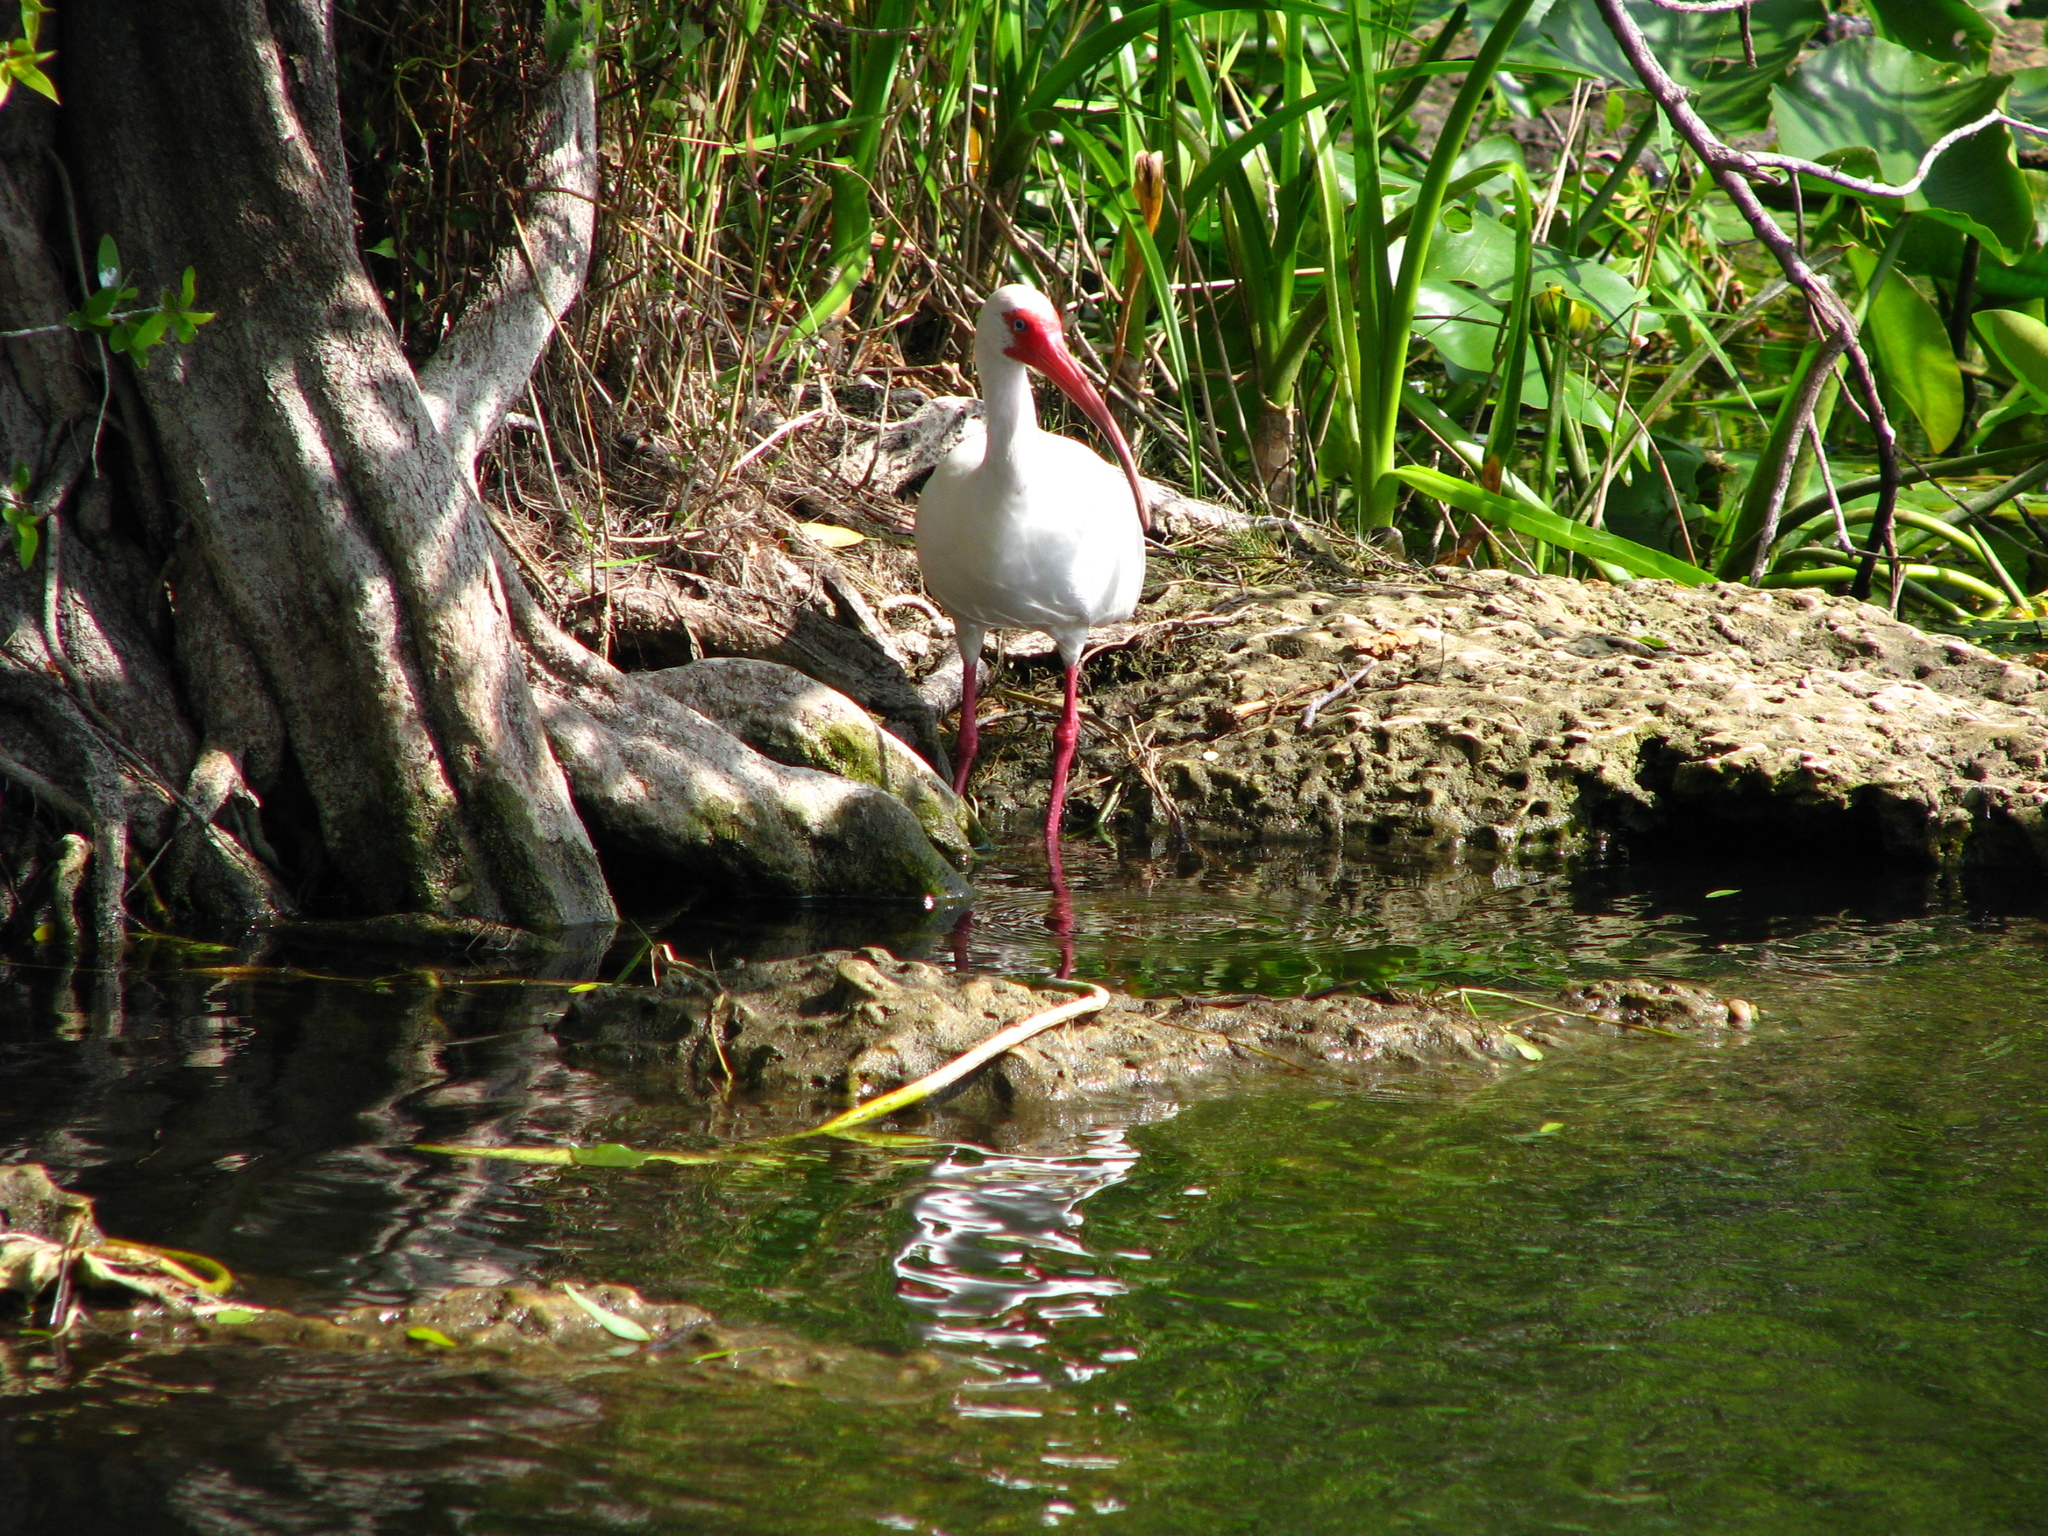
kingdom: Animalia
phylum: Chordata
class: Aves
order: Pelecaniformes
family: Threskiornithidae
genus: Eudocimus
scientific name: Eudocimus albus
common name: White ibis
